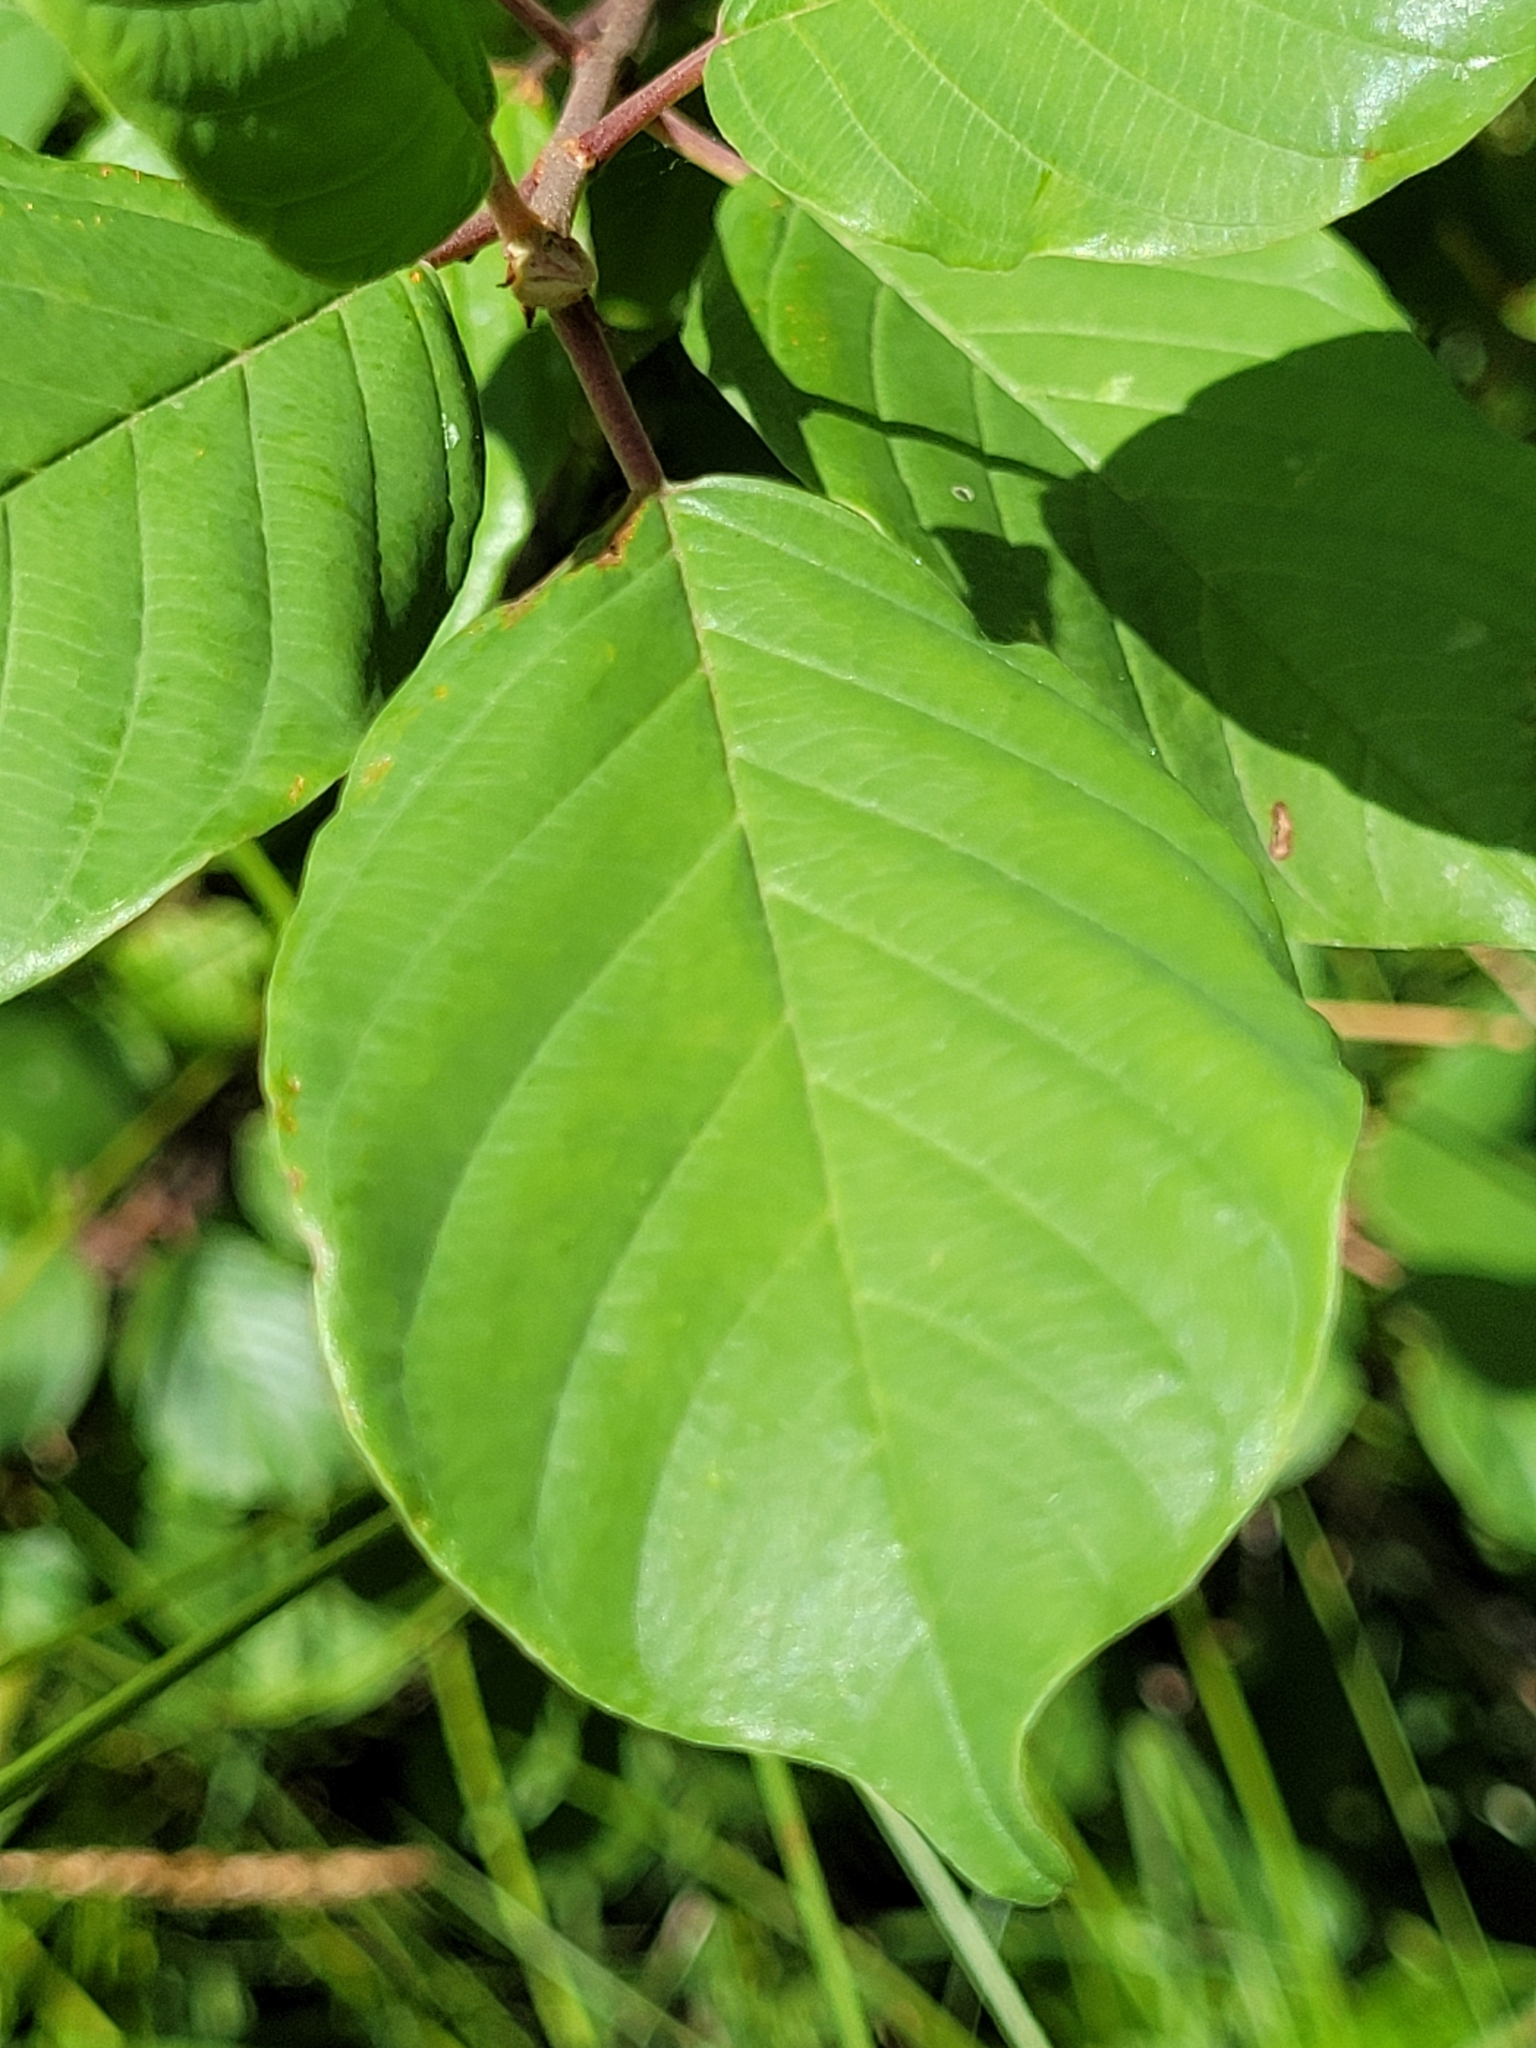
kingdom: Plantae
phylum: Tracheophyta
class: Magnoliopsida
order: Rosales
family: Rhamnaceae
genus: Frangula
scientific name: Frangula alnus
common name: Alder buckthorn
